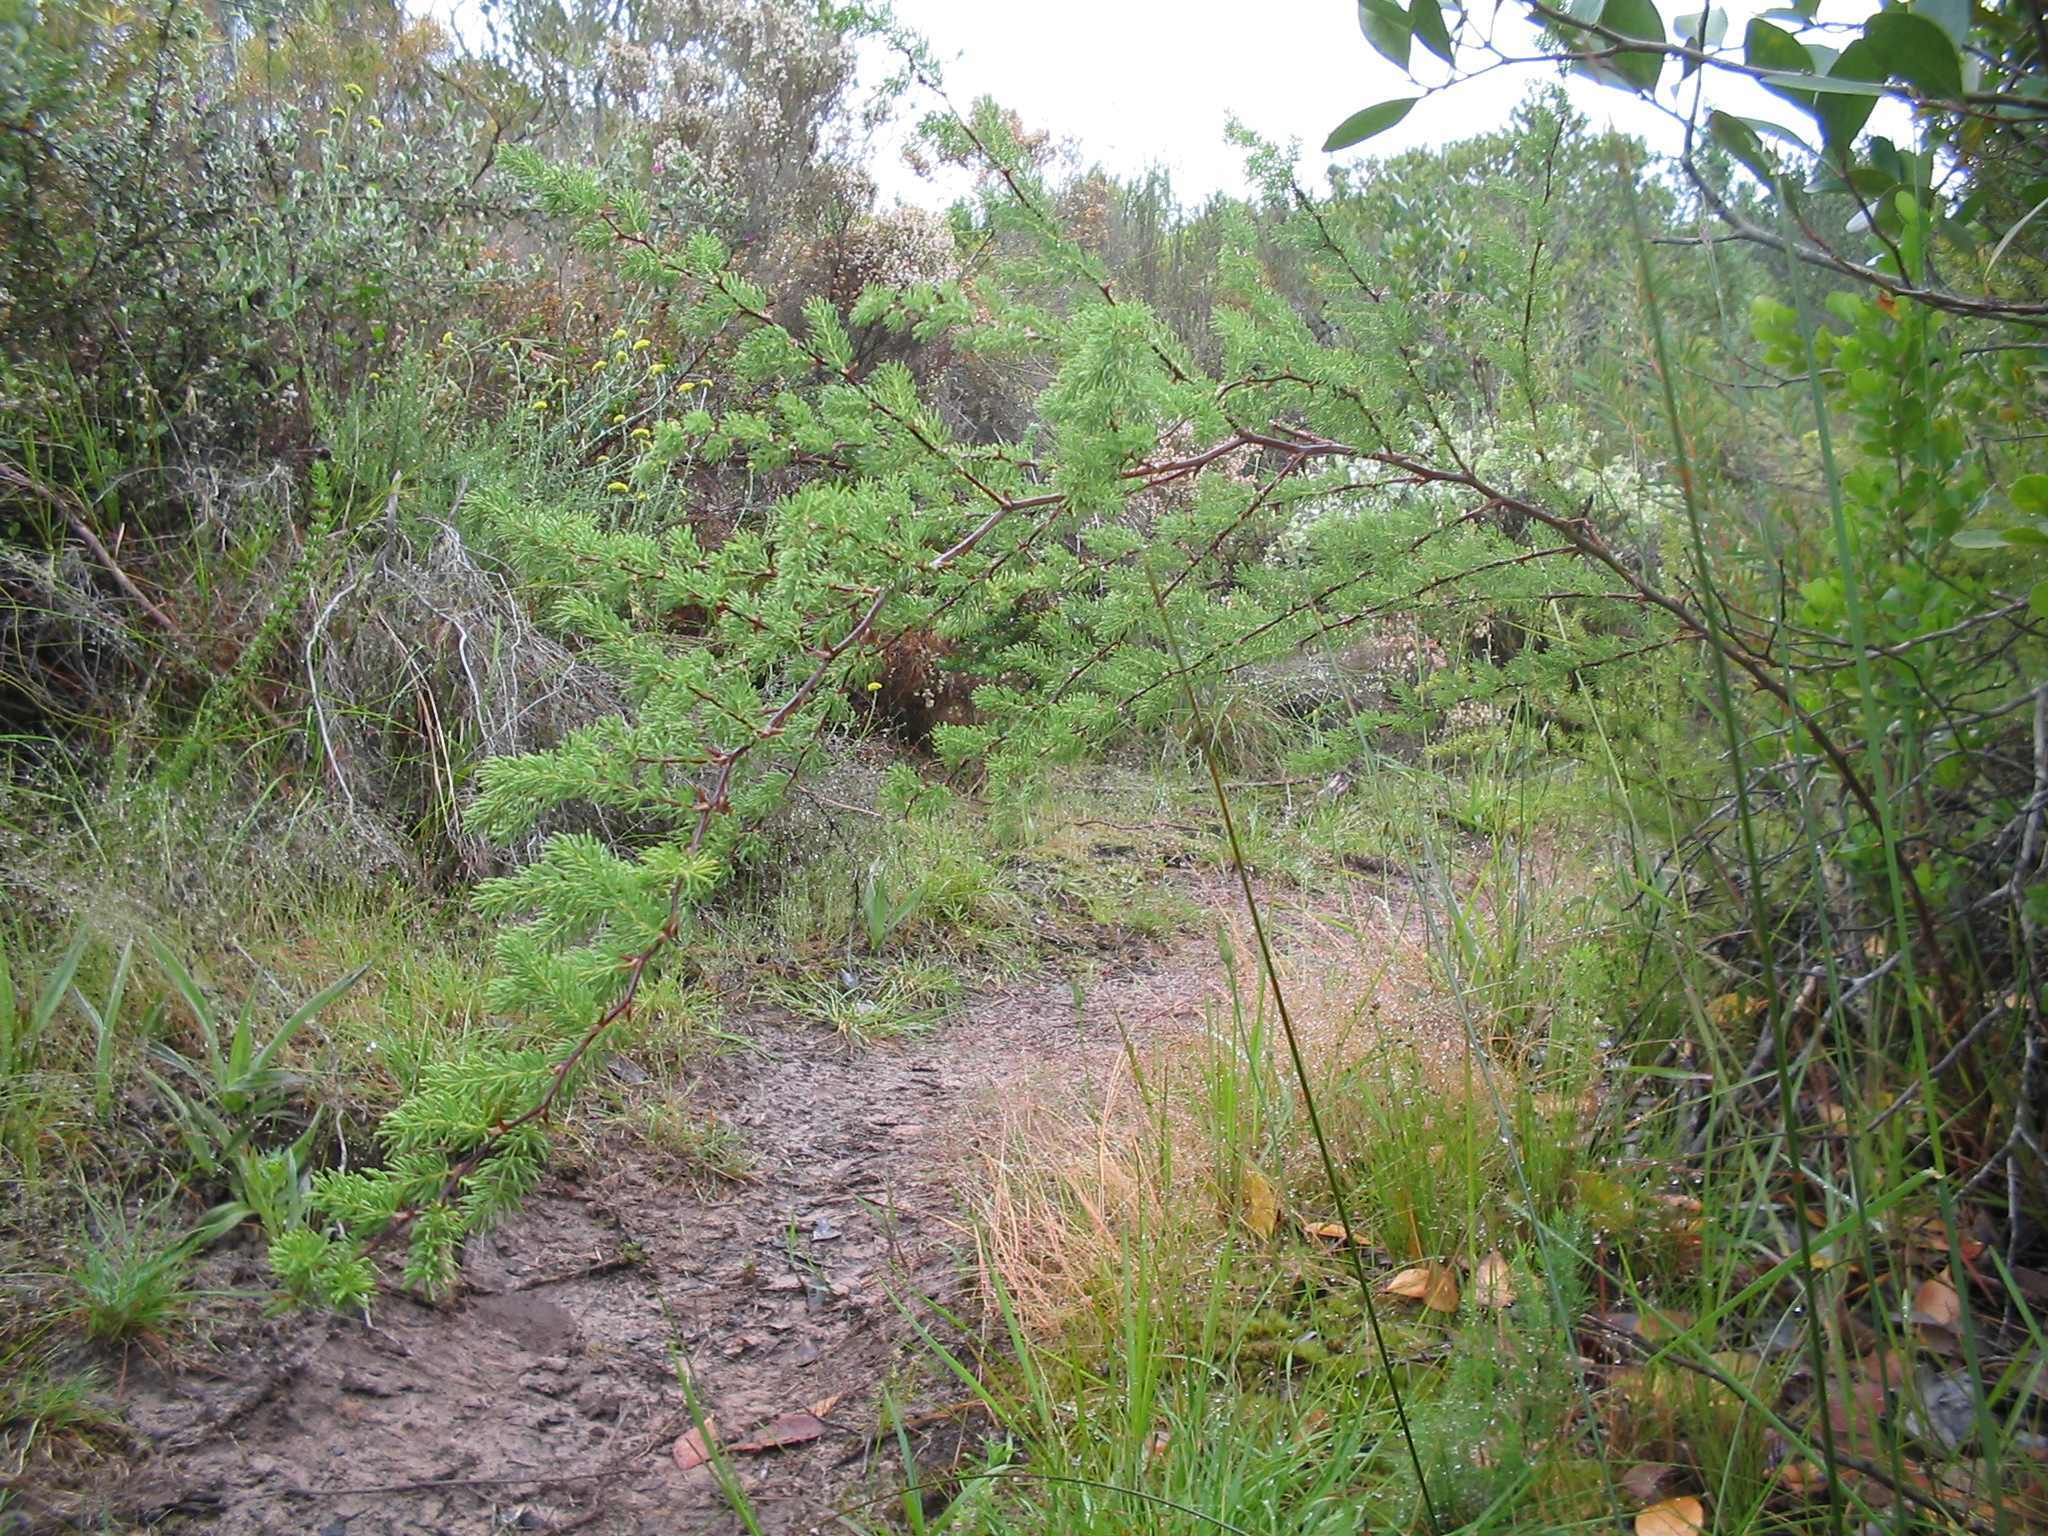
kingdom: Plantae
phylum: Tracheophyta
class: Liliopsida
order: Asparagales
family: Asparagaceae
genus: Asparagus
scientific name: Asparagus rubicundus
